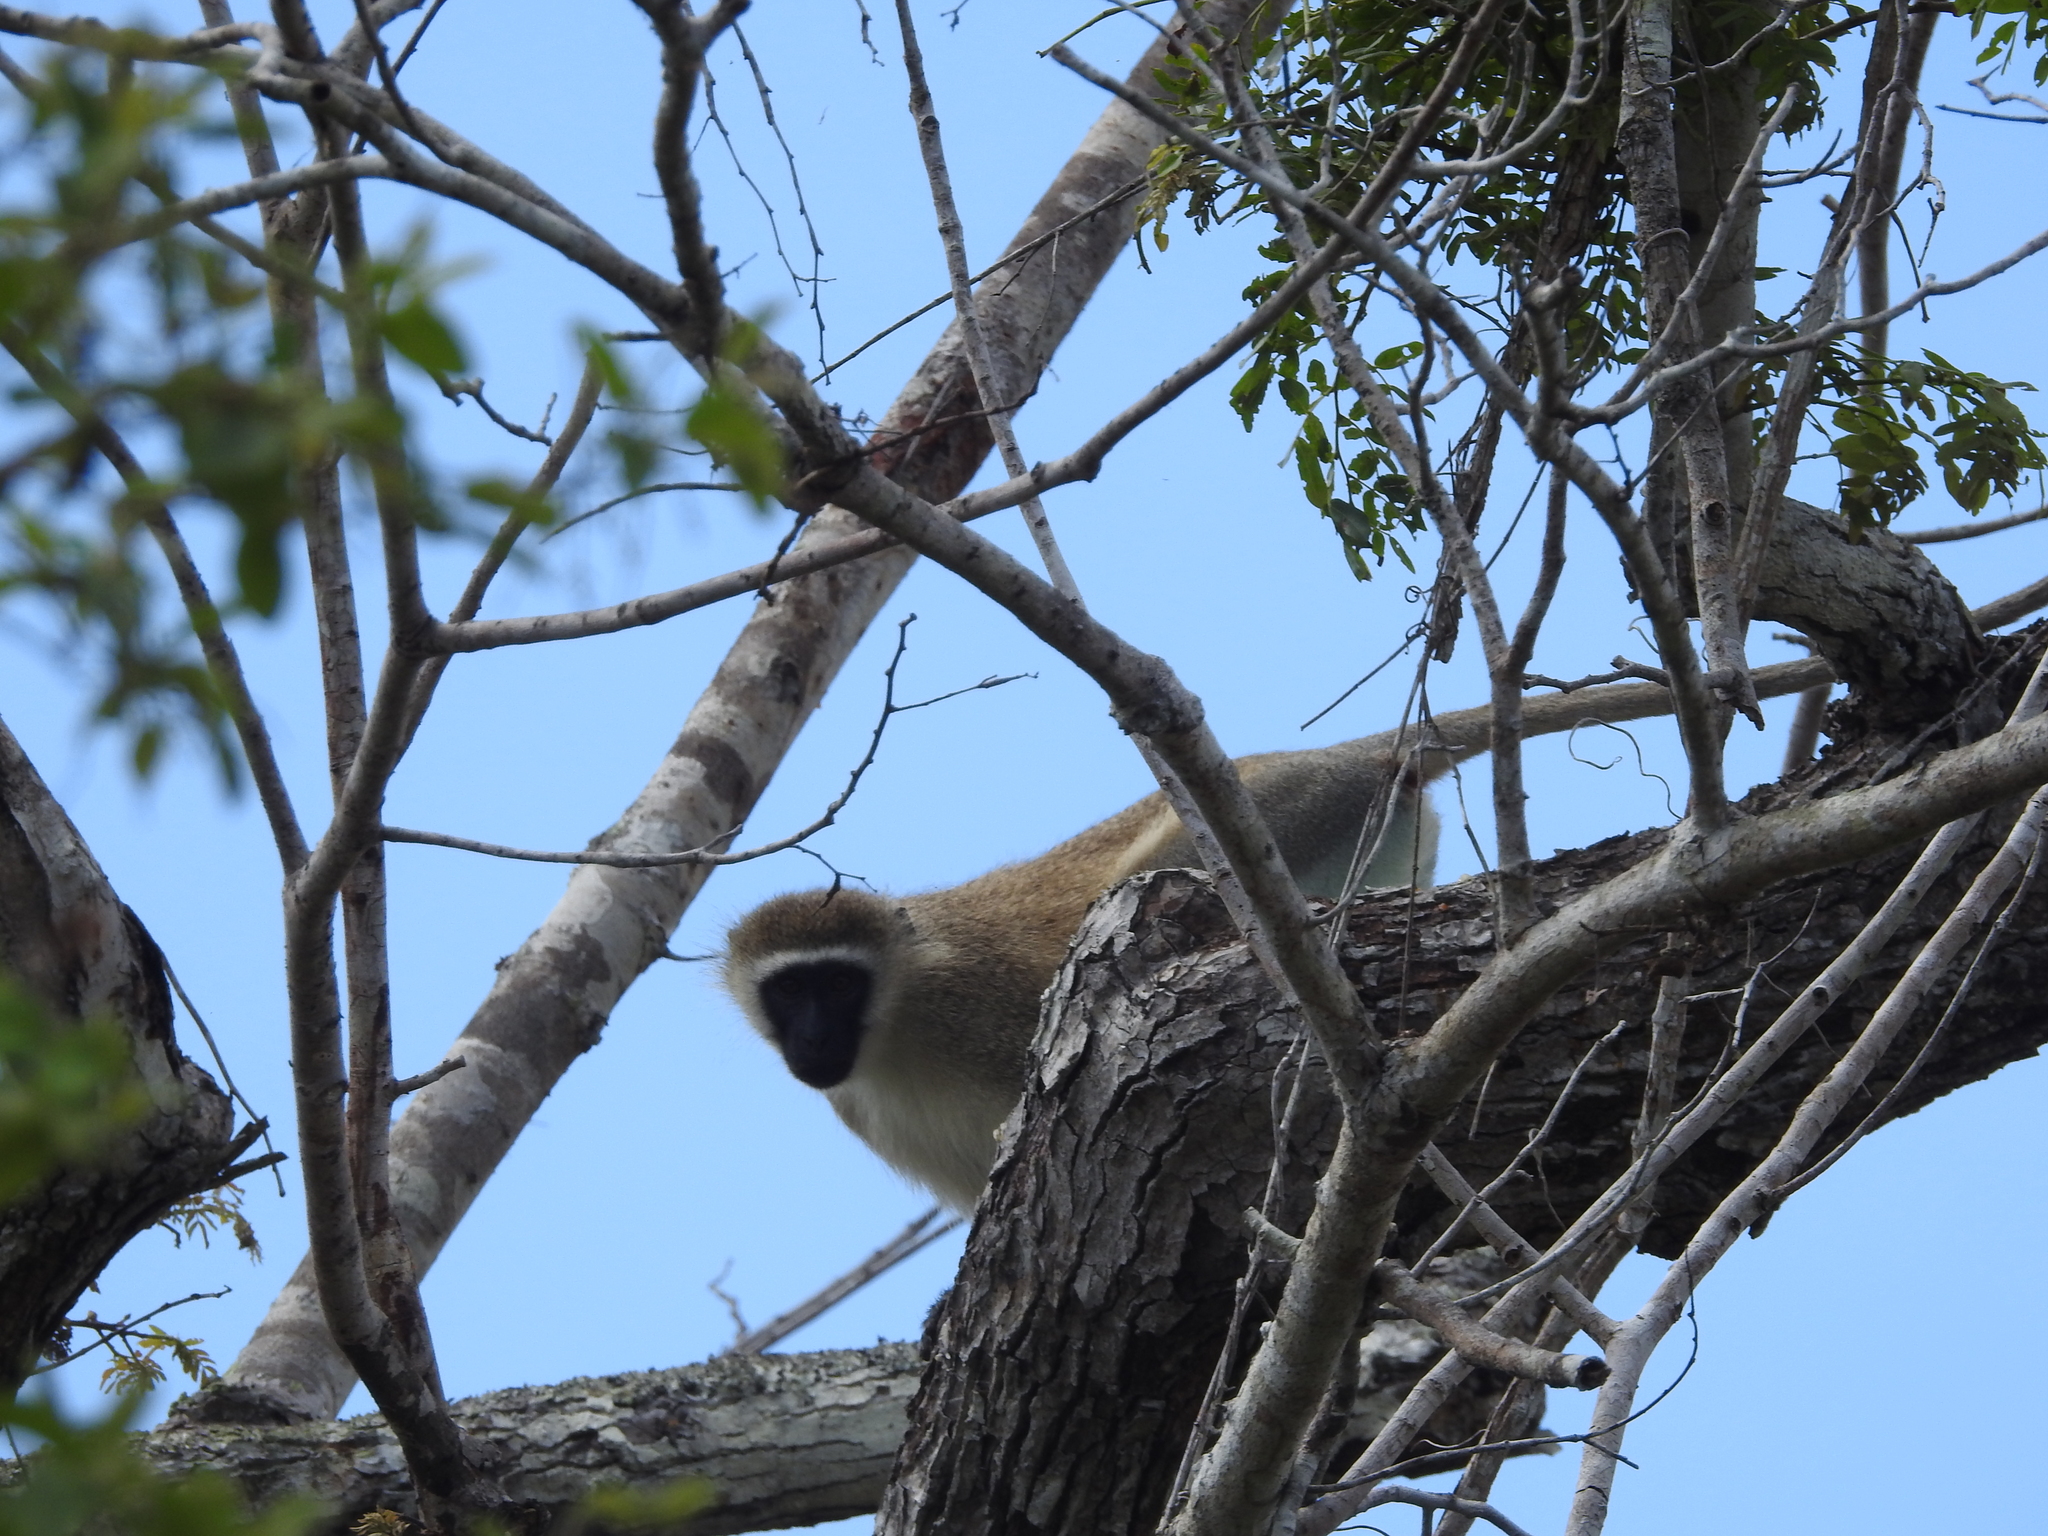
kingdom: Animalia
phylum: Chordata
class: Mammalia
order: Primates
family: Cercopithecidae
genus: Chlorocebus
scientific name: Chlorocebus pygerythrus
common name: Vervet monkey
